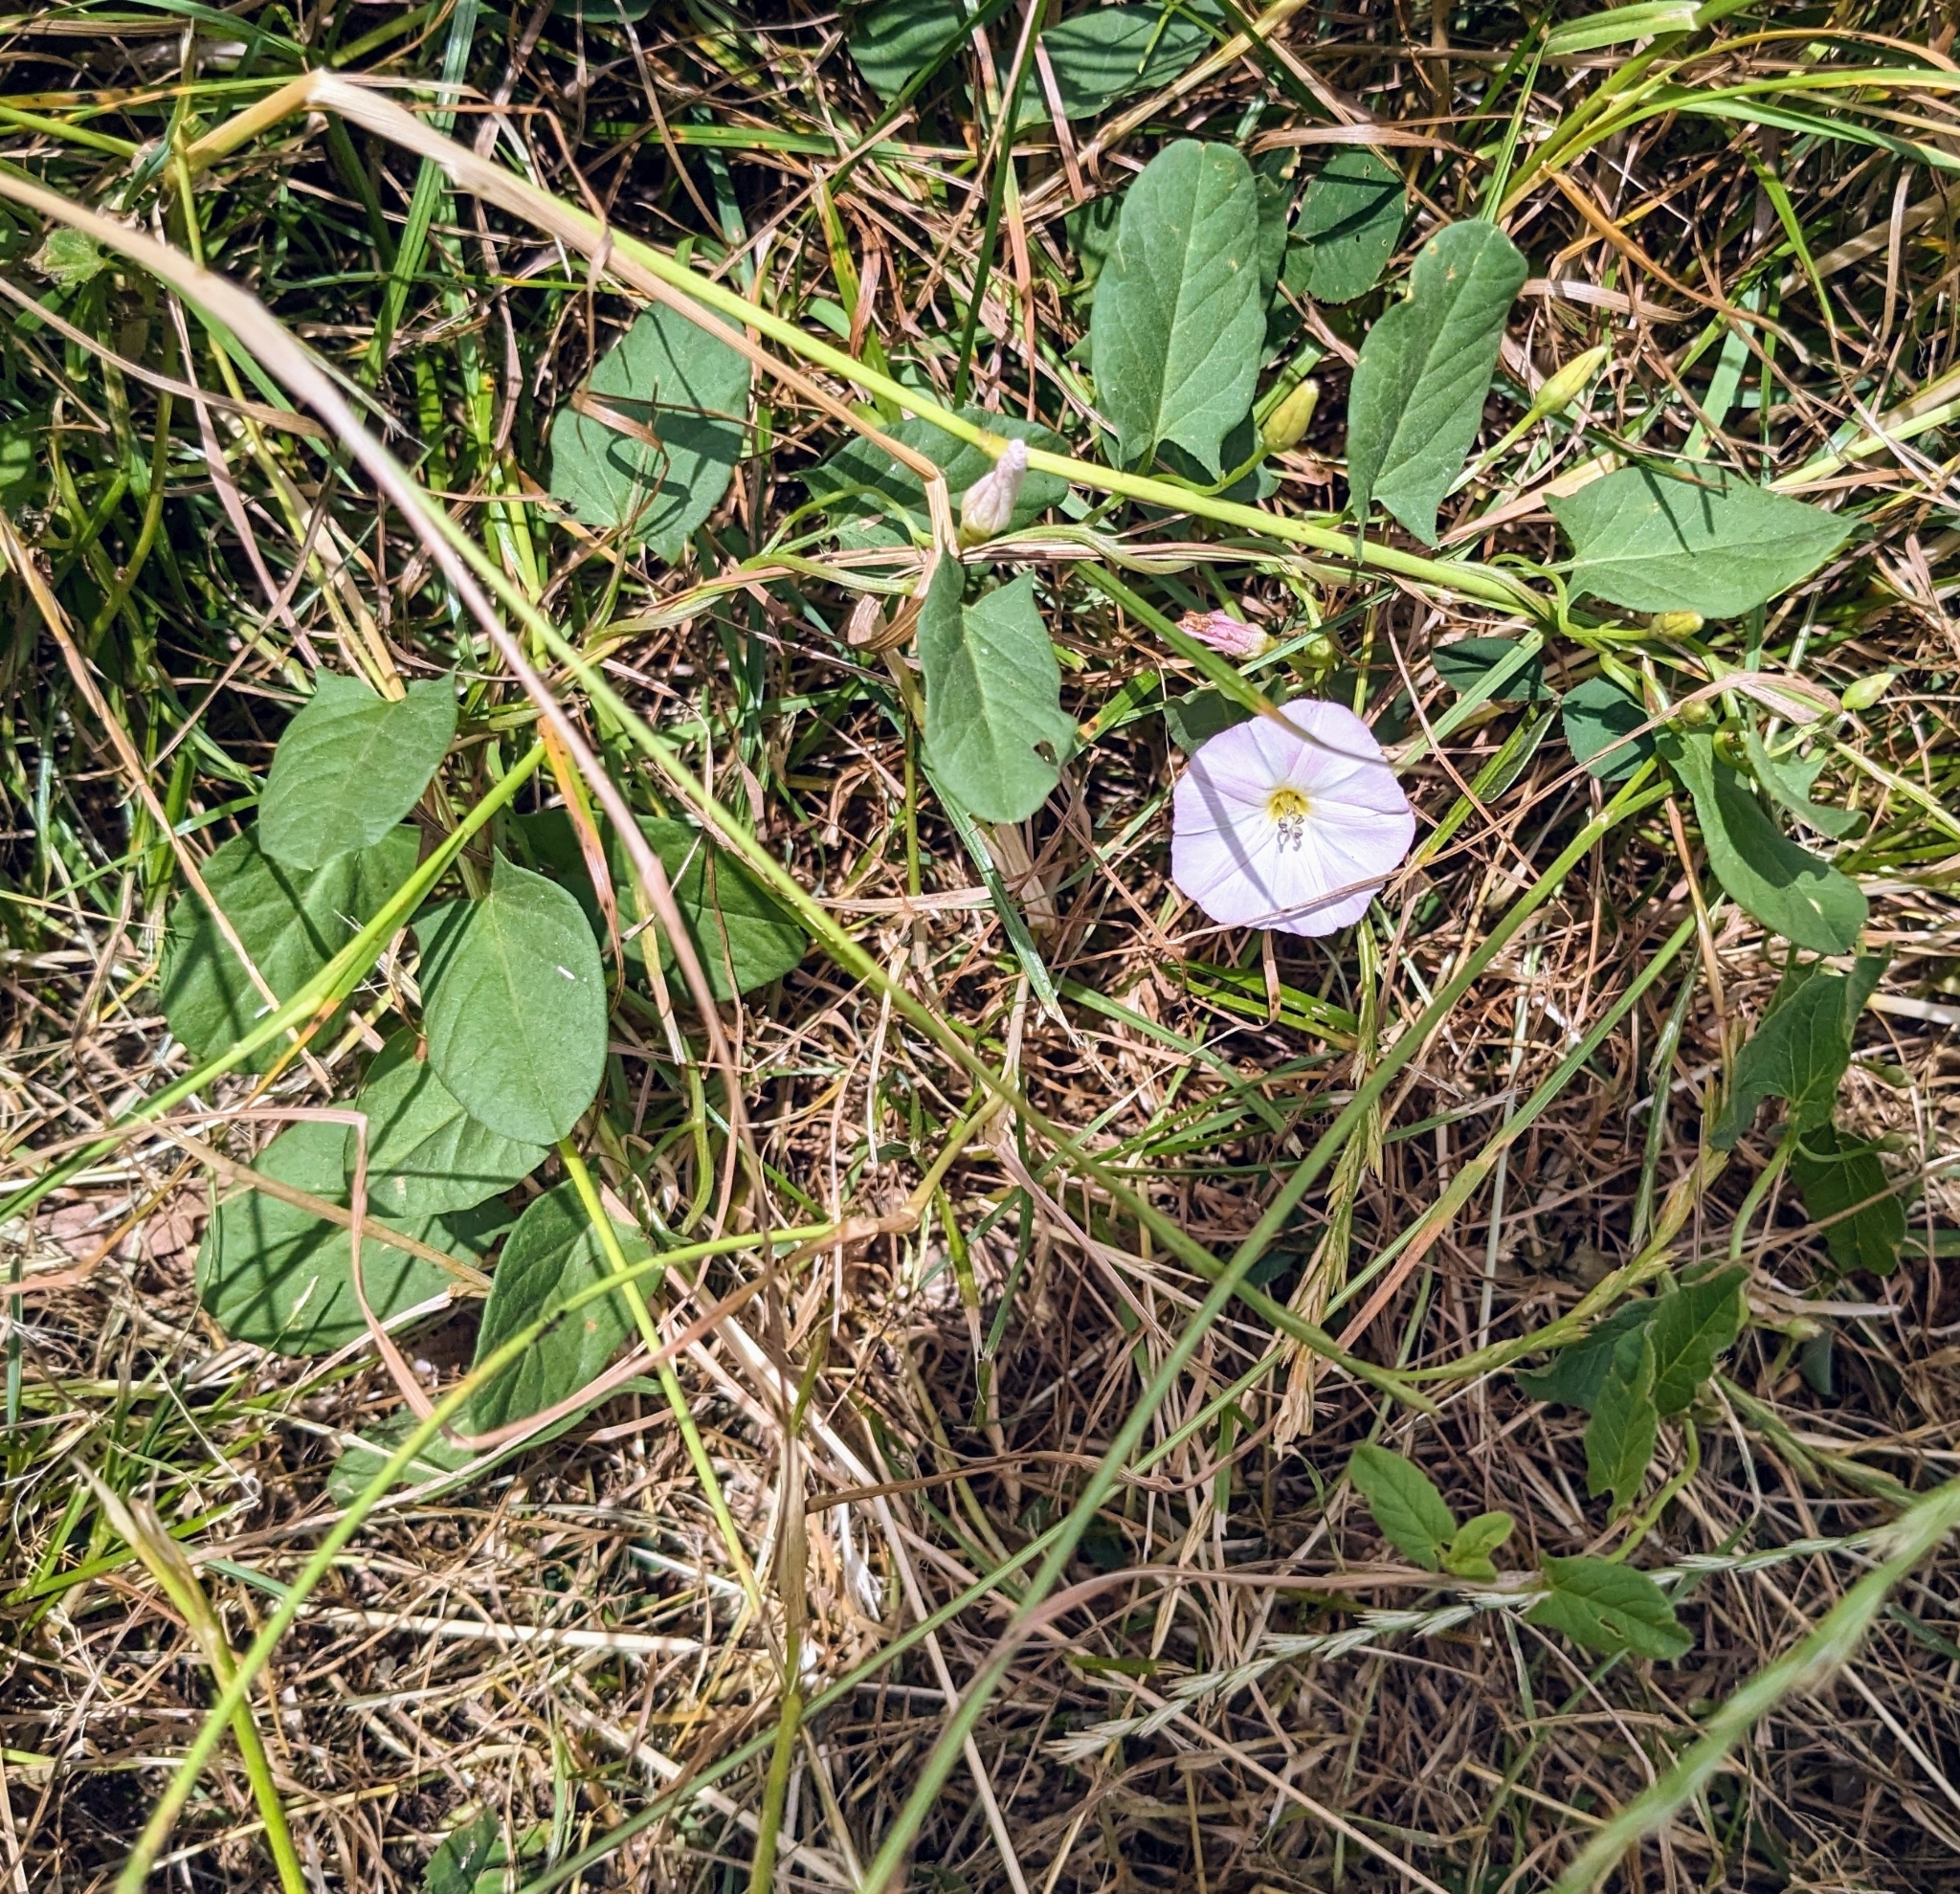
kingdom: Plantae
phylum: Tracheophyta
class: Magnoliopsida
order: Solanales
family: Convolvulaceae
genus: Convolvulus
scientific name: Convolvulus arvensis
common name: Field bindweed
